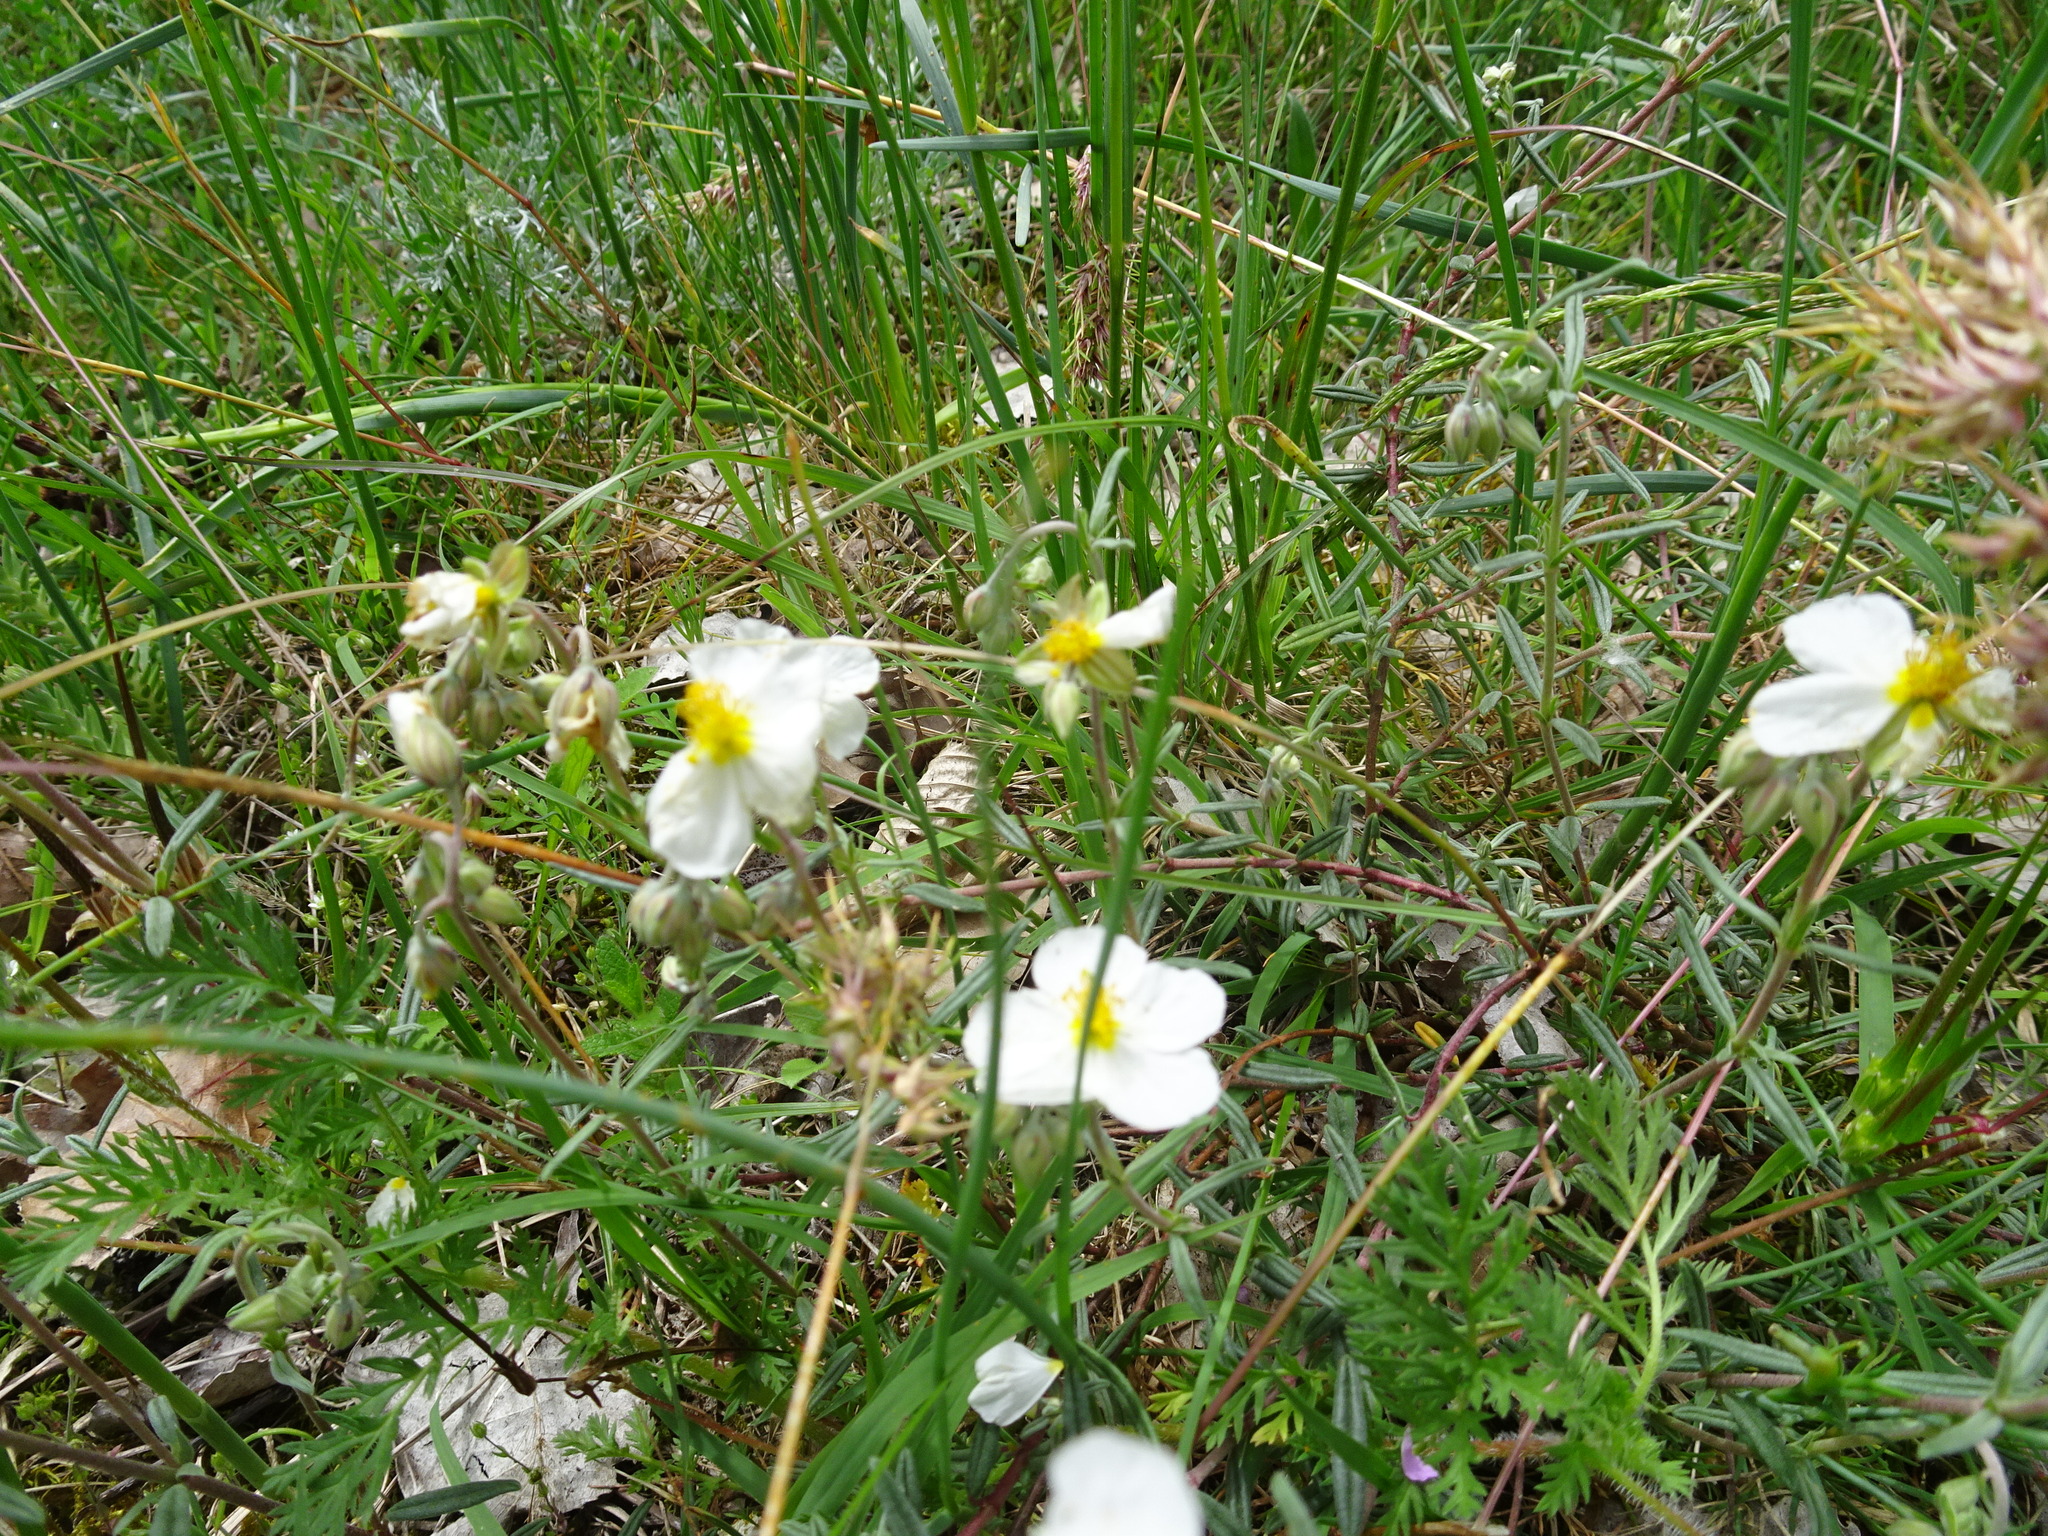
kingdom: Plantae
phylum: Tracheophyta
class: Magnoliopsida
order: Malvales
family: Cistaceae
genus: Helianthemum
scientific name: Helianthemum apenninum
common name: White rock-rose
